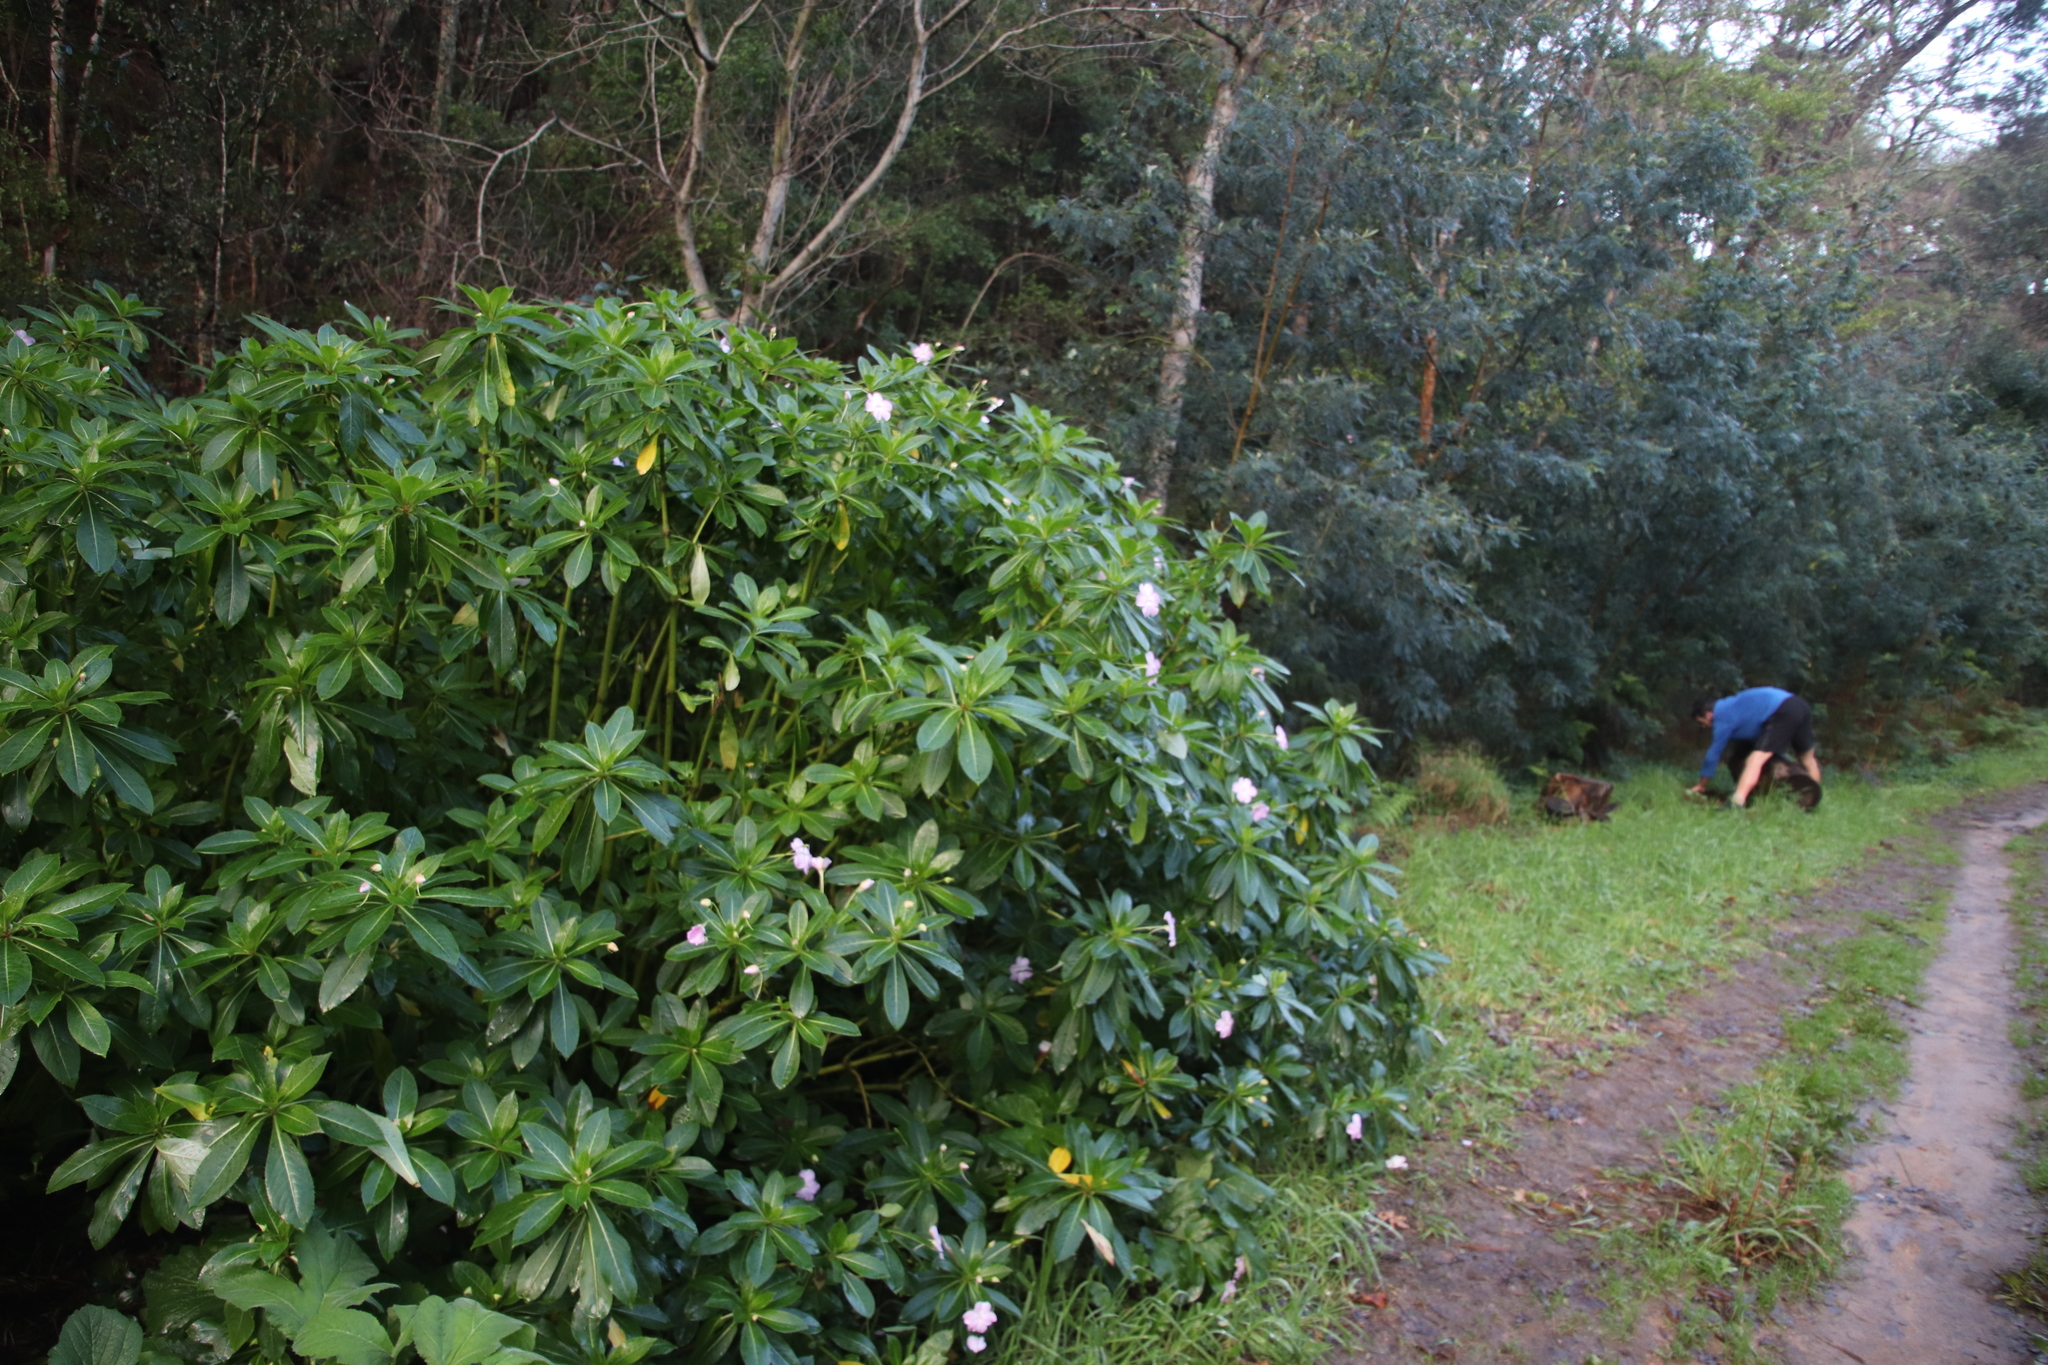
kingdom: Plantae
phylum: Tracheophyta
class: Magnoliopsida
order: Ericales
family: Balsaminaceae
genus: Impatiens
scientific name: Impatiens sodenii
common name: Oliver's touch-me-not
